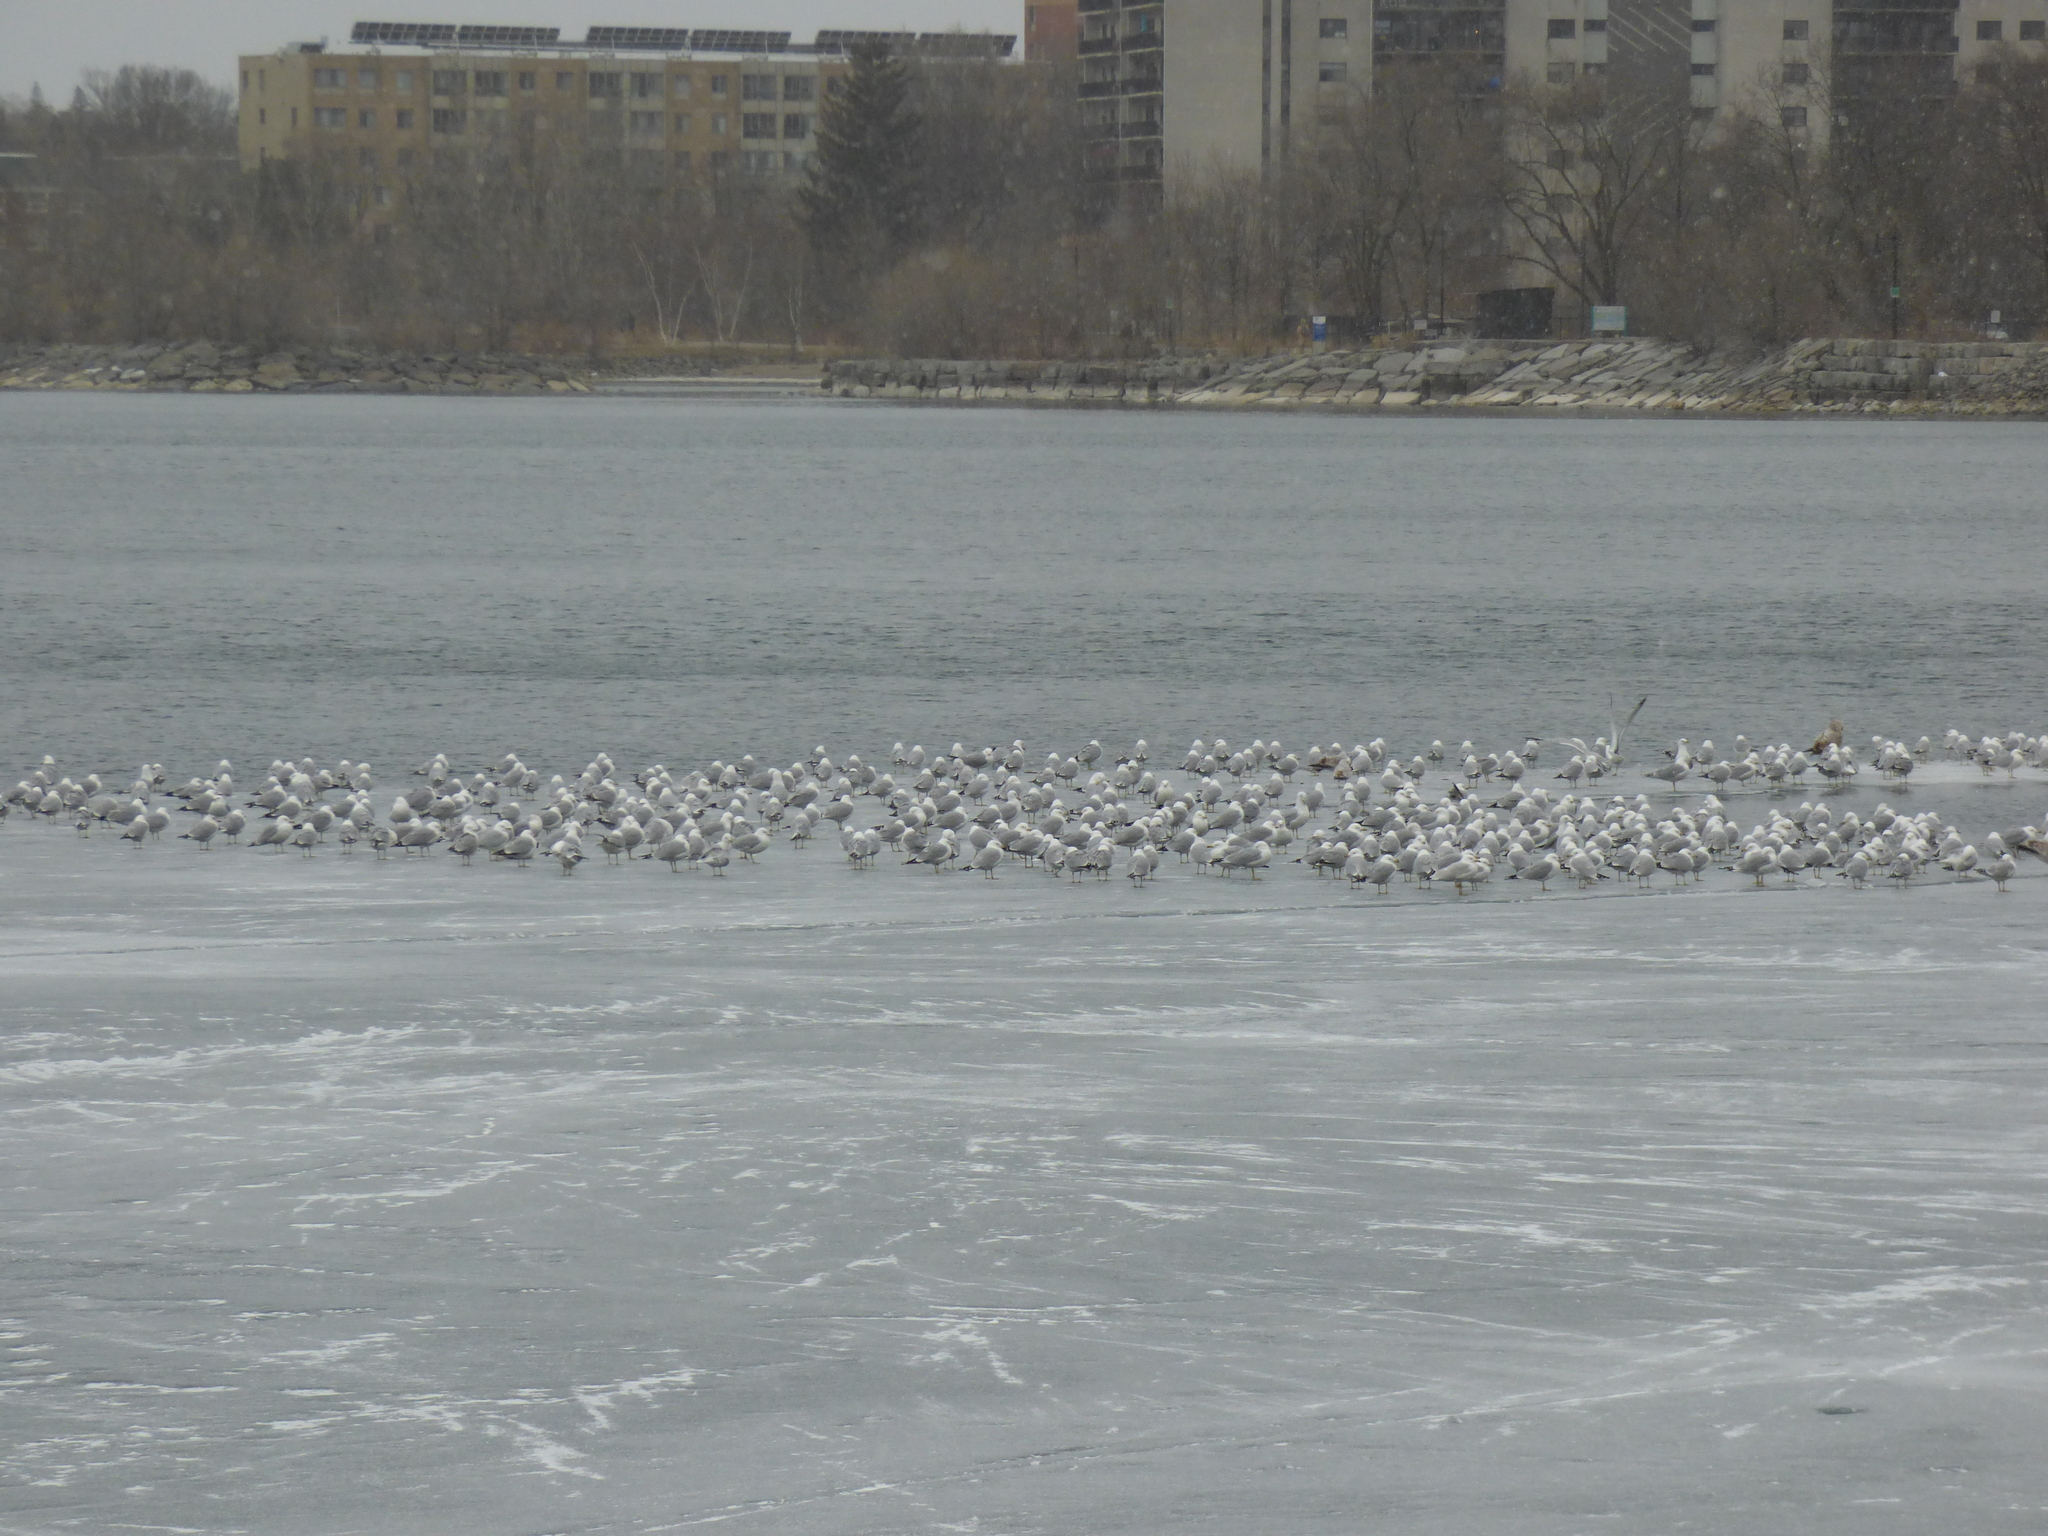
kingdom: Animalia
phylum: Chordata
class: Aves
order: Charadriiformes
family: Laridae
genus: Larus
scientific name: Larus delawarensis
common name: Ring-billed gull
